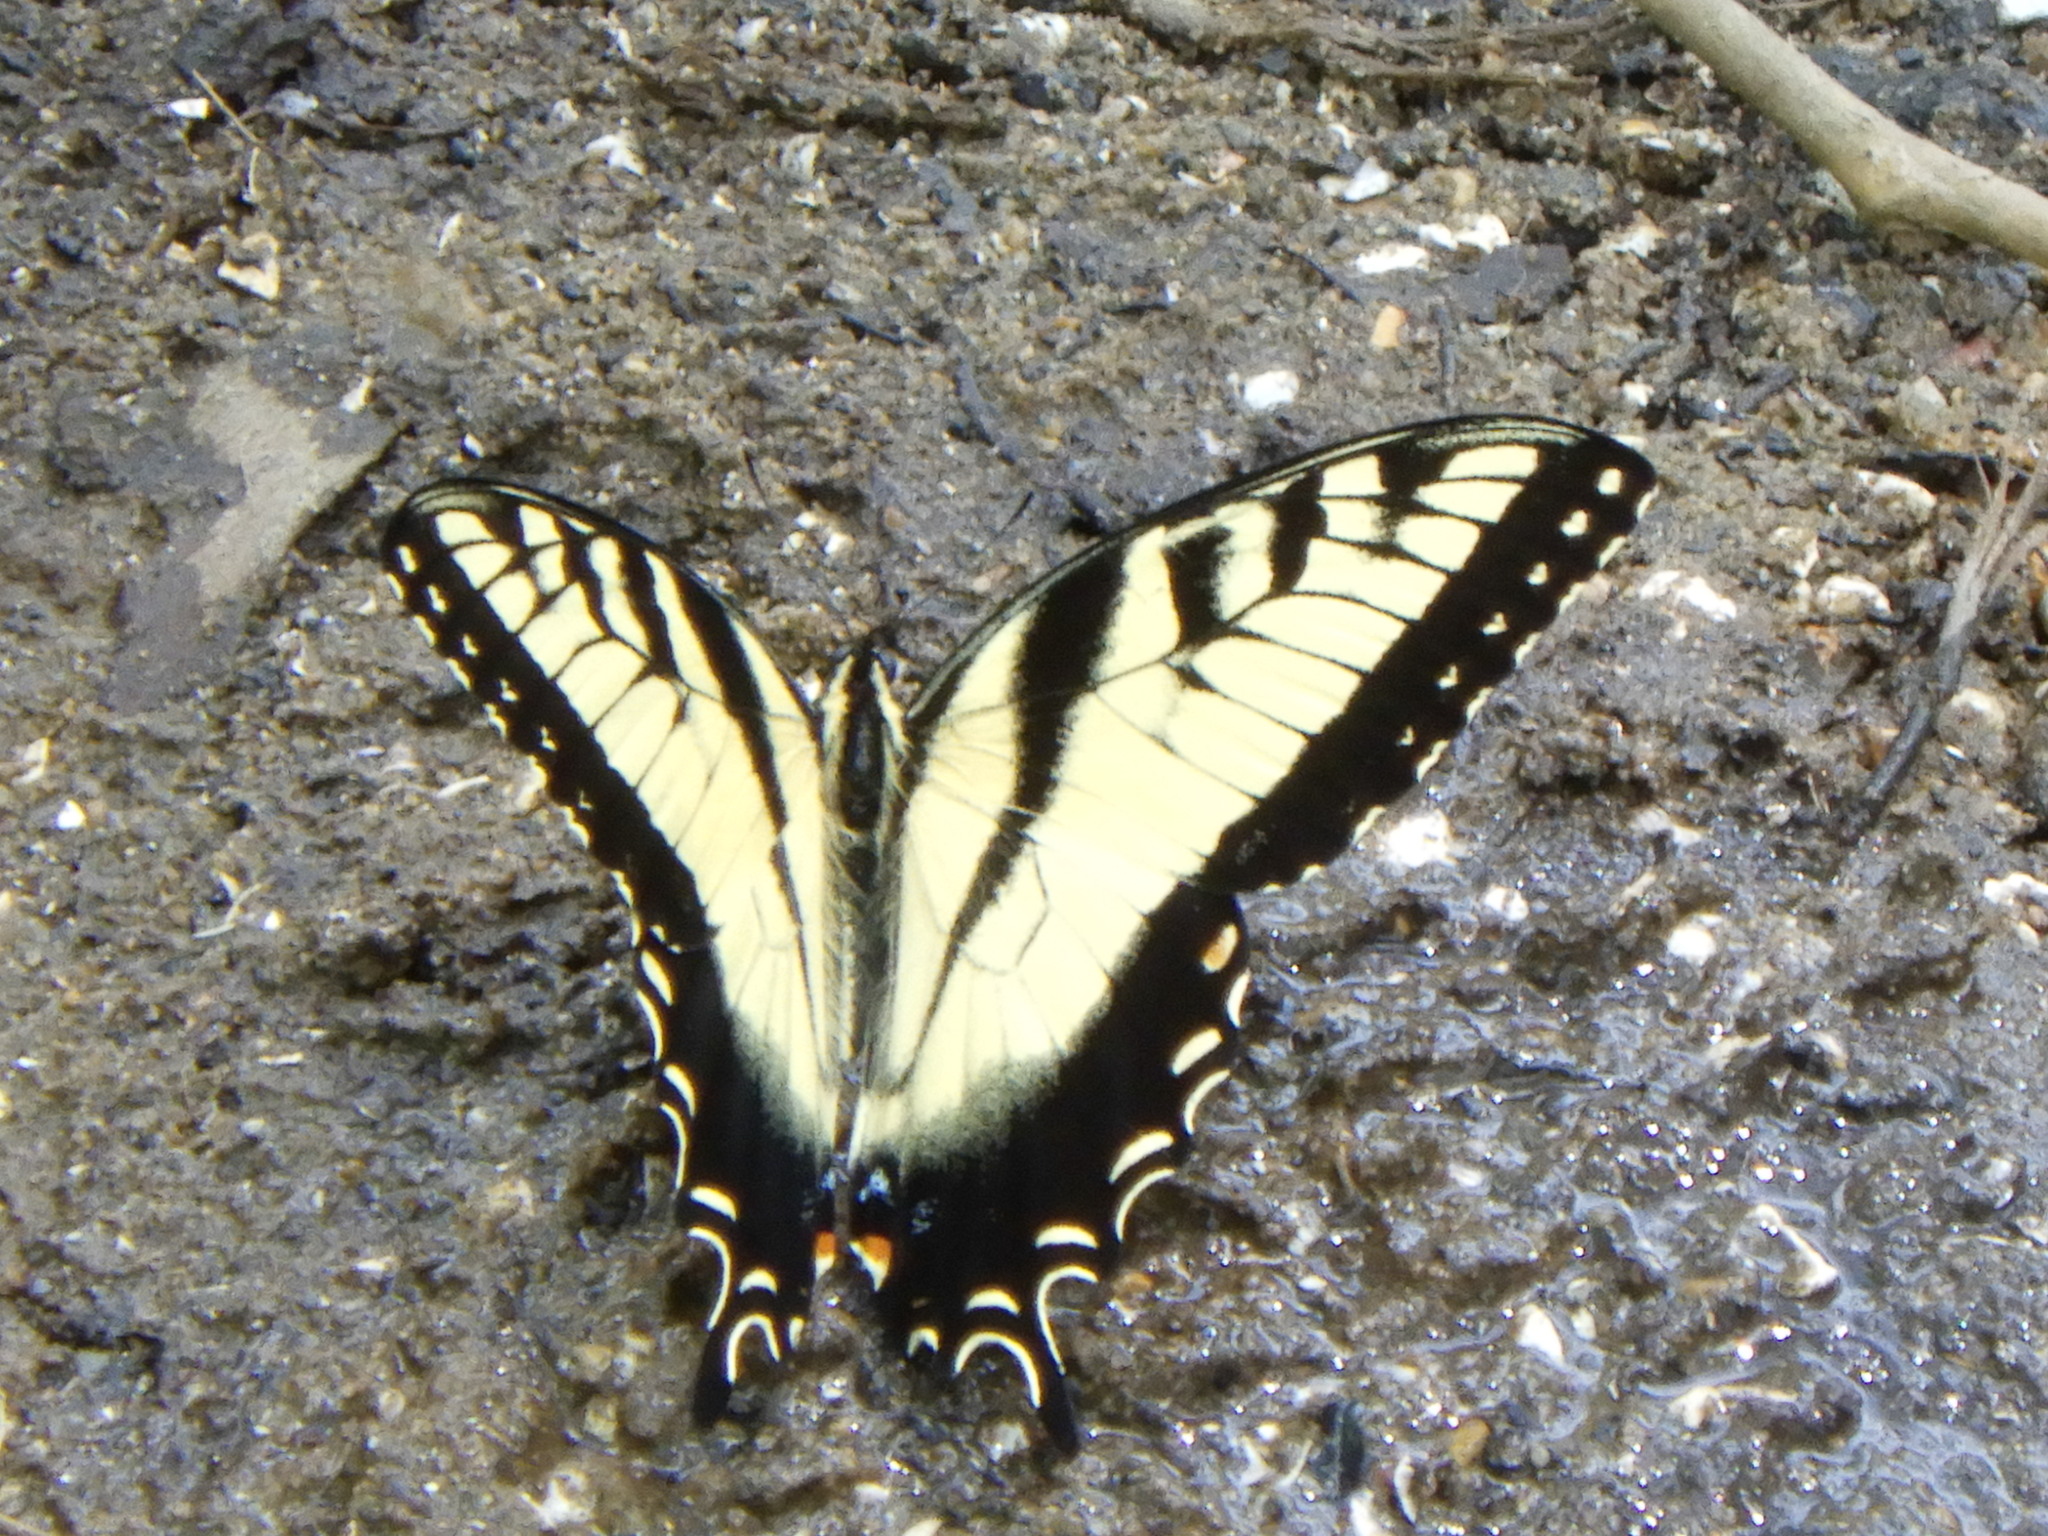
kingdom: Animalia
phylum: Arthropoda
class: Insecta
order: Lepidoptera
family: Papilionidae
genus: Papilio
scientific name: Papilio glaucus
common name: Tiger swallowtail
